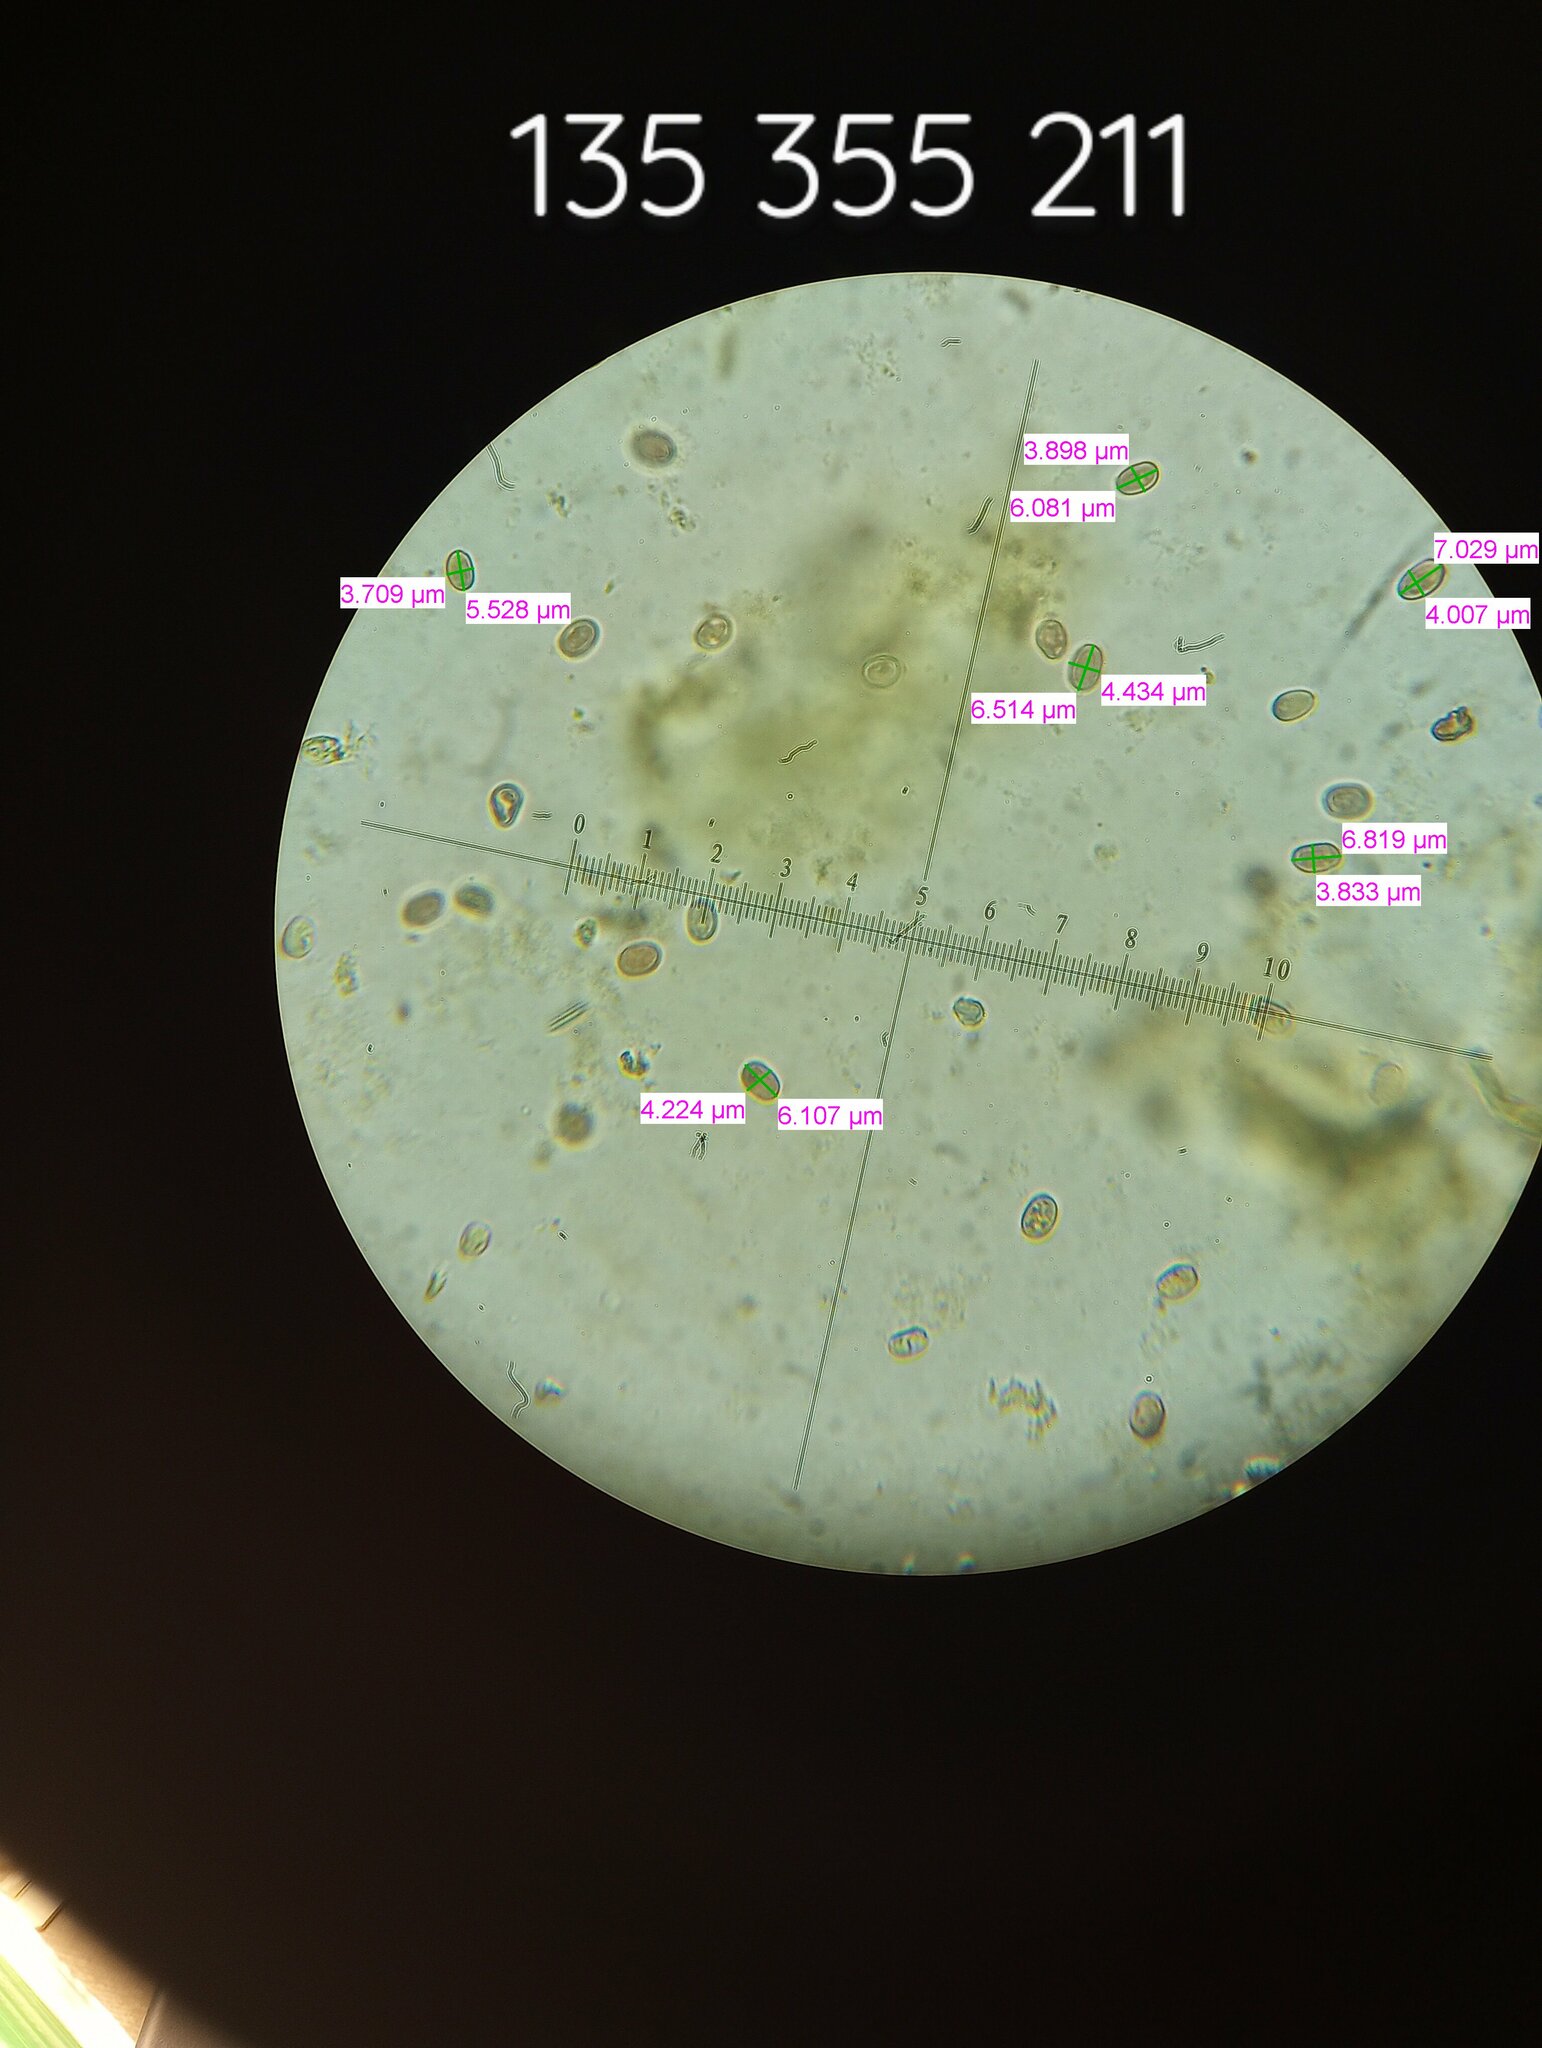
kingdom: Fungi
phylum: Basidiomycota
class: Agaricomycetes
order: Boletales
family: Hygrophoropsidaceae
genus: Hygrophoropsis
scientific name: Hygrophoropsis aurantiaca
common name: False chanterelle
